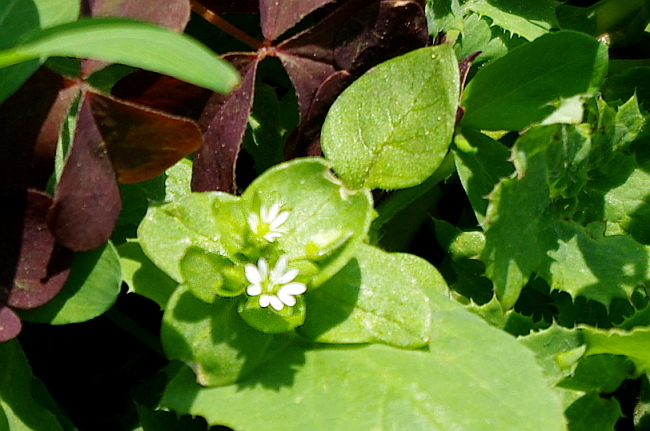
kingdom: Plantae
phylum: Tracheophyta
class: Magnoliopsida
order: Caryophyllales
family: Caryophyllaceae
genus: Stellaria
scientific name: Stellaria media
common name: Common chickweed
